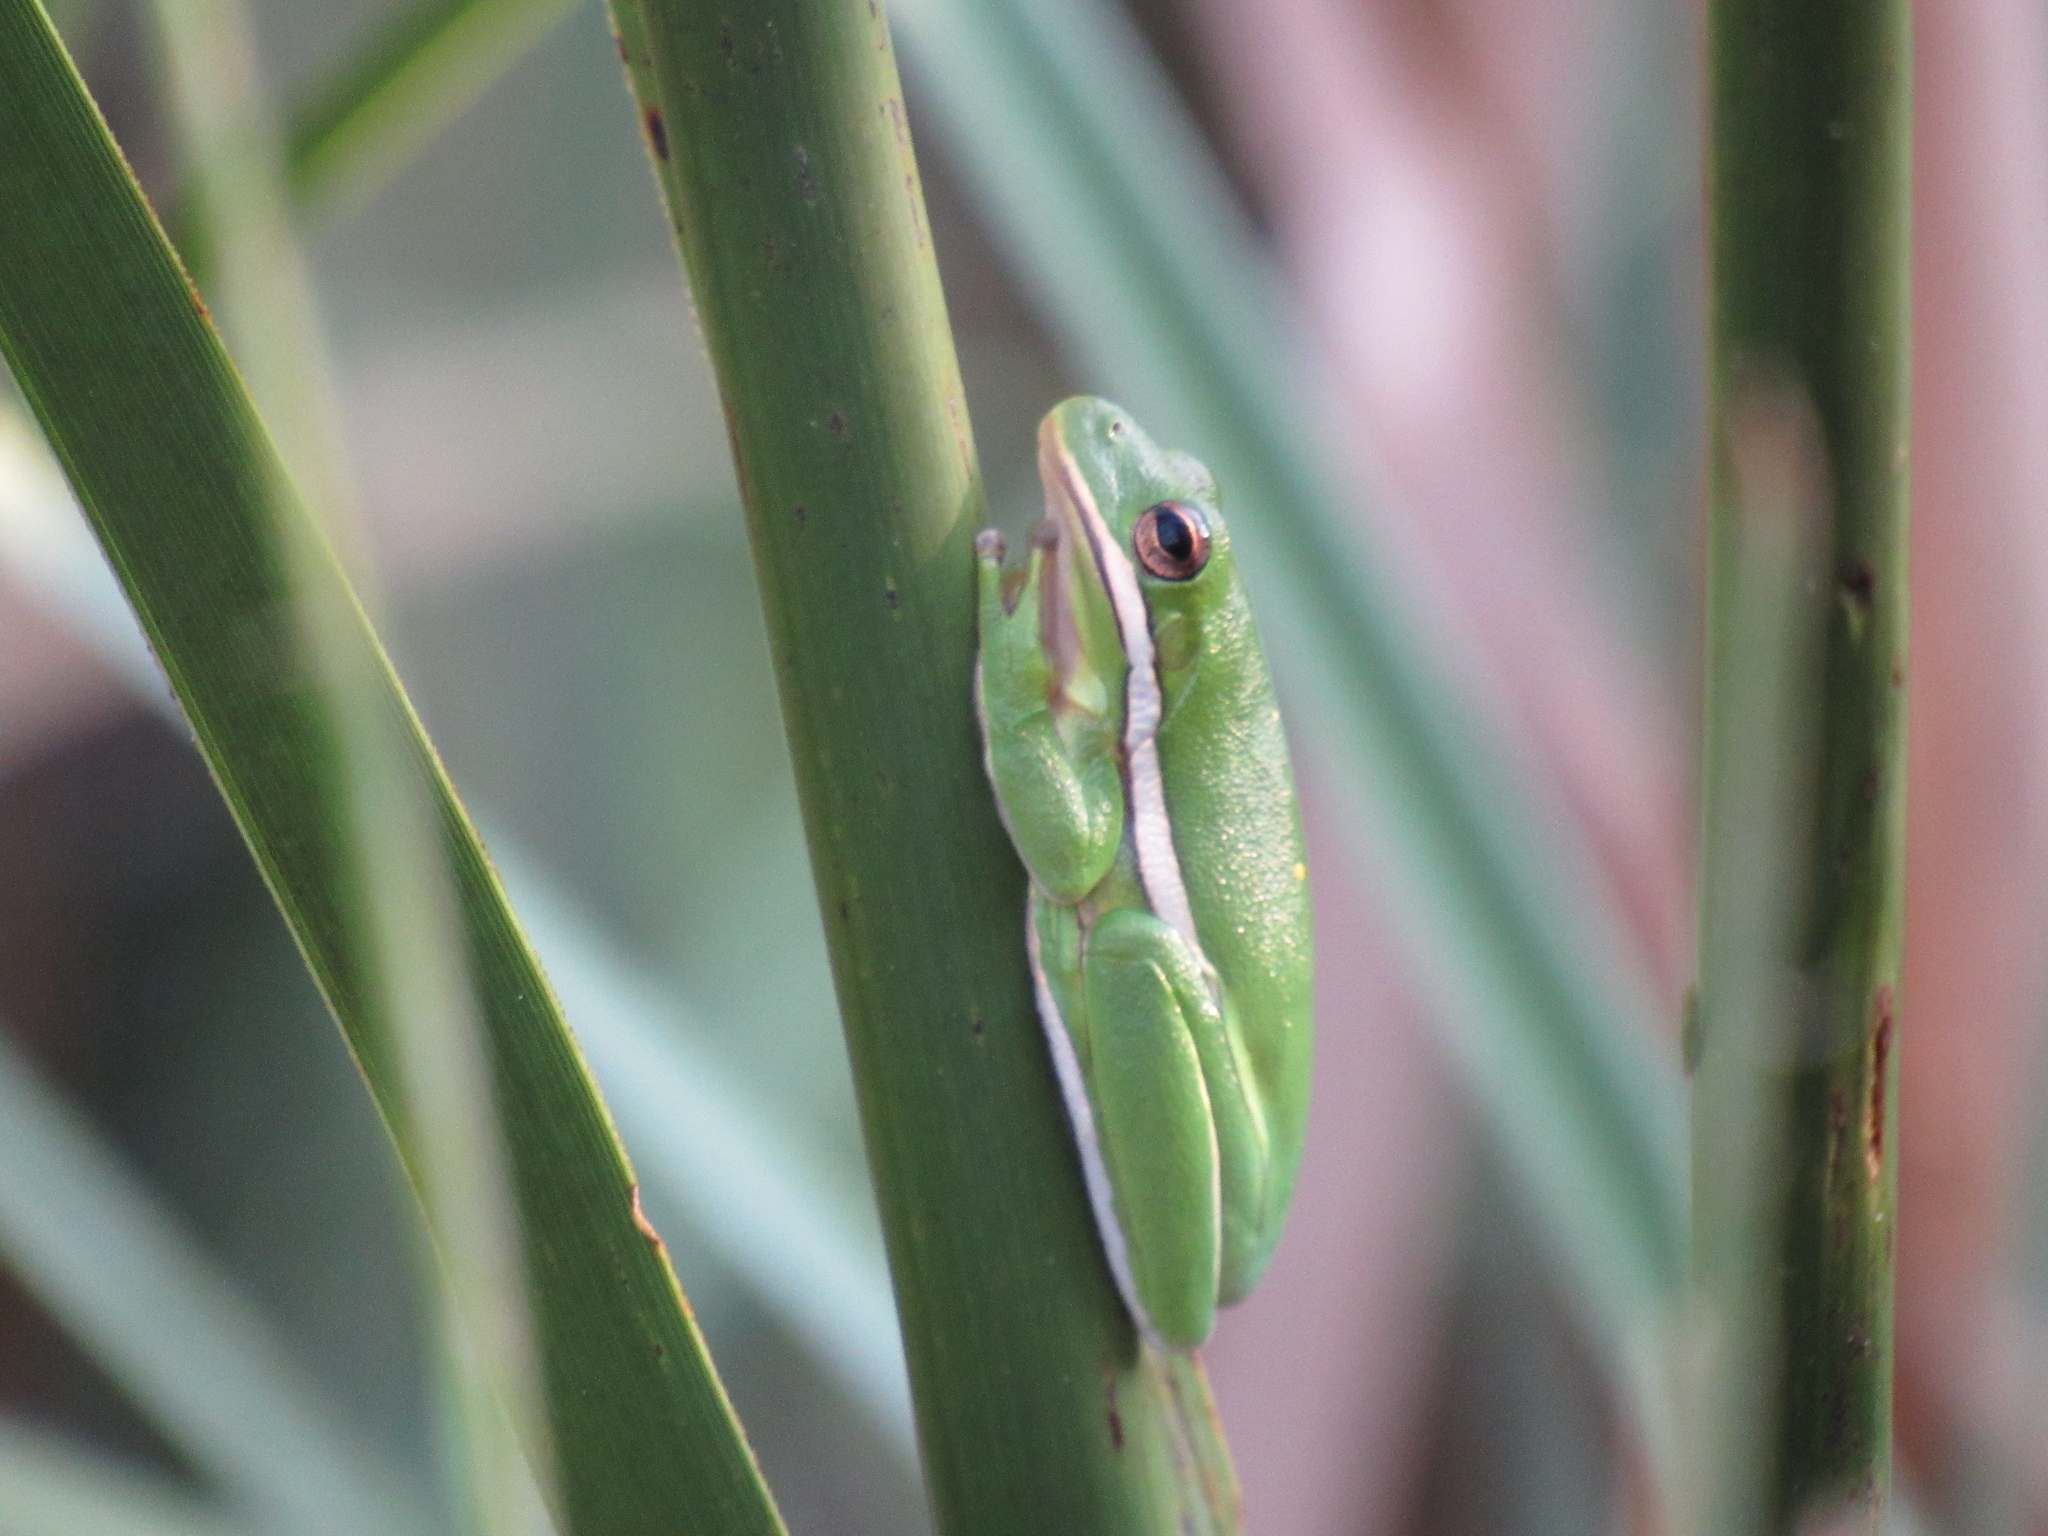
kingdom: Animalia
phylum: Chordata
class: Amphibia
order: Anura
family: Hylidae
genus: Dryophytes
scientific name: Dryophytes cinereus
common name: Green treefrog
